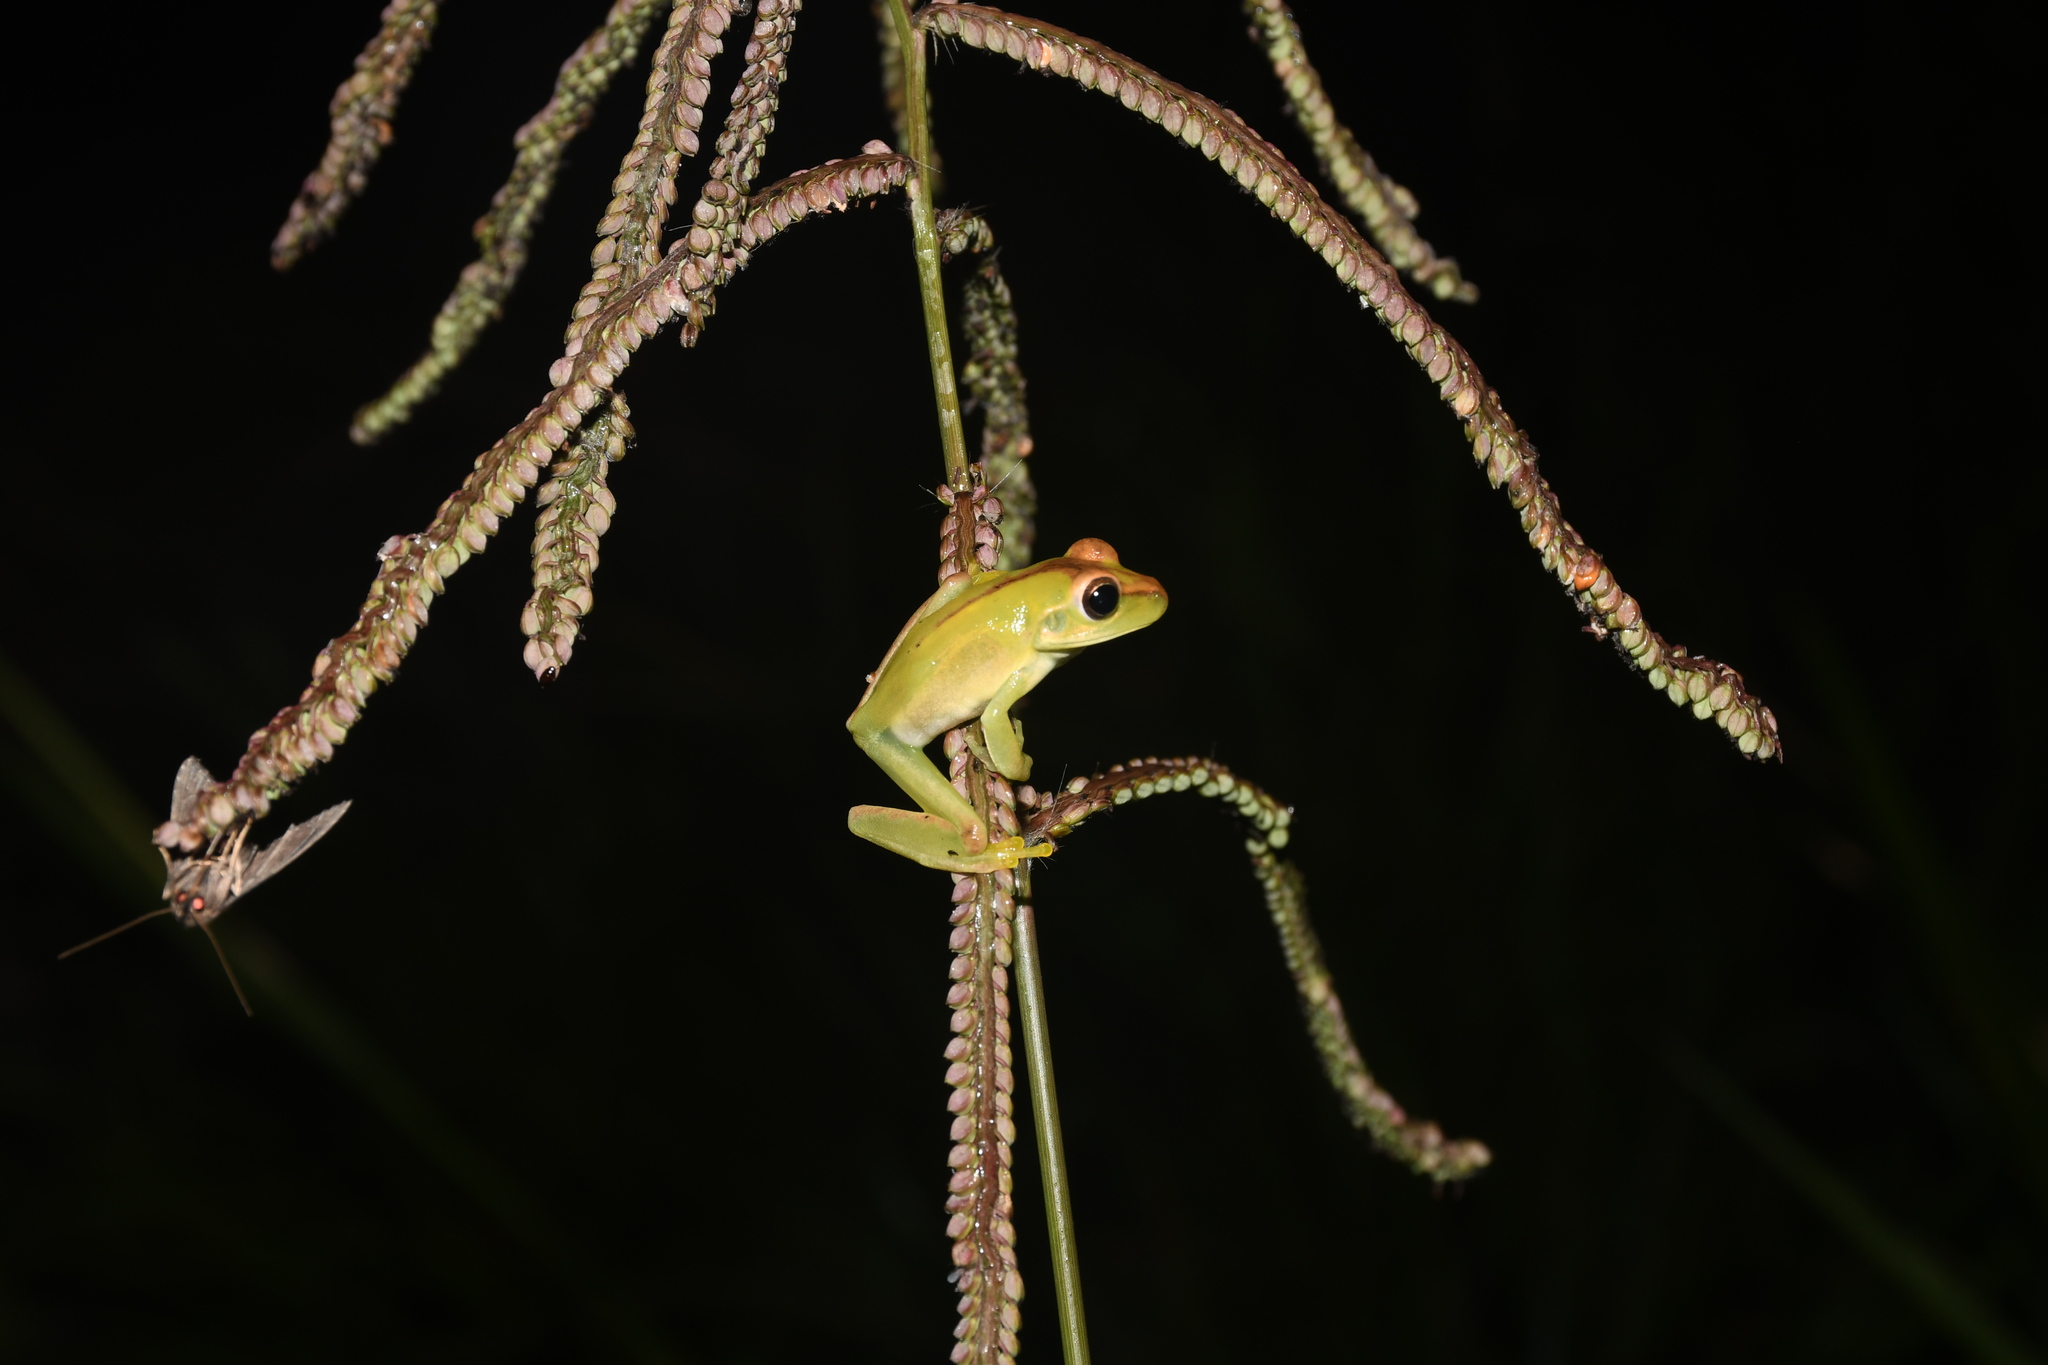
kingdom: Animalia
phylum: Chordata
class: Amphibia
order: Anura
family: Hylidae
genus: Boana
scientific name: Boana raniceps
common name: Chaco treefrog
